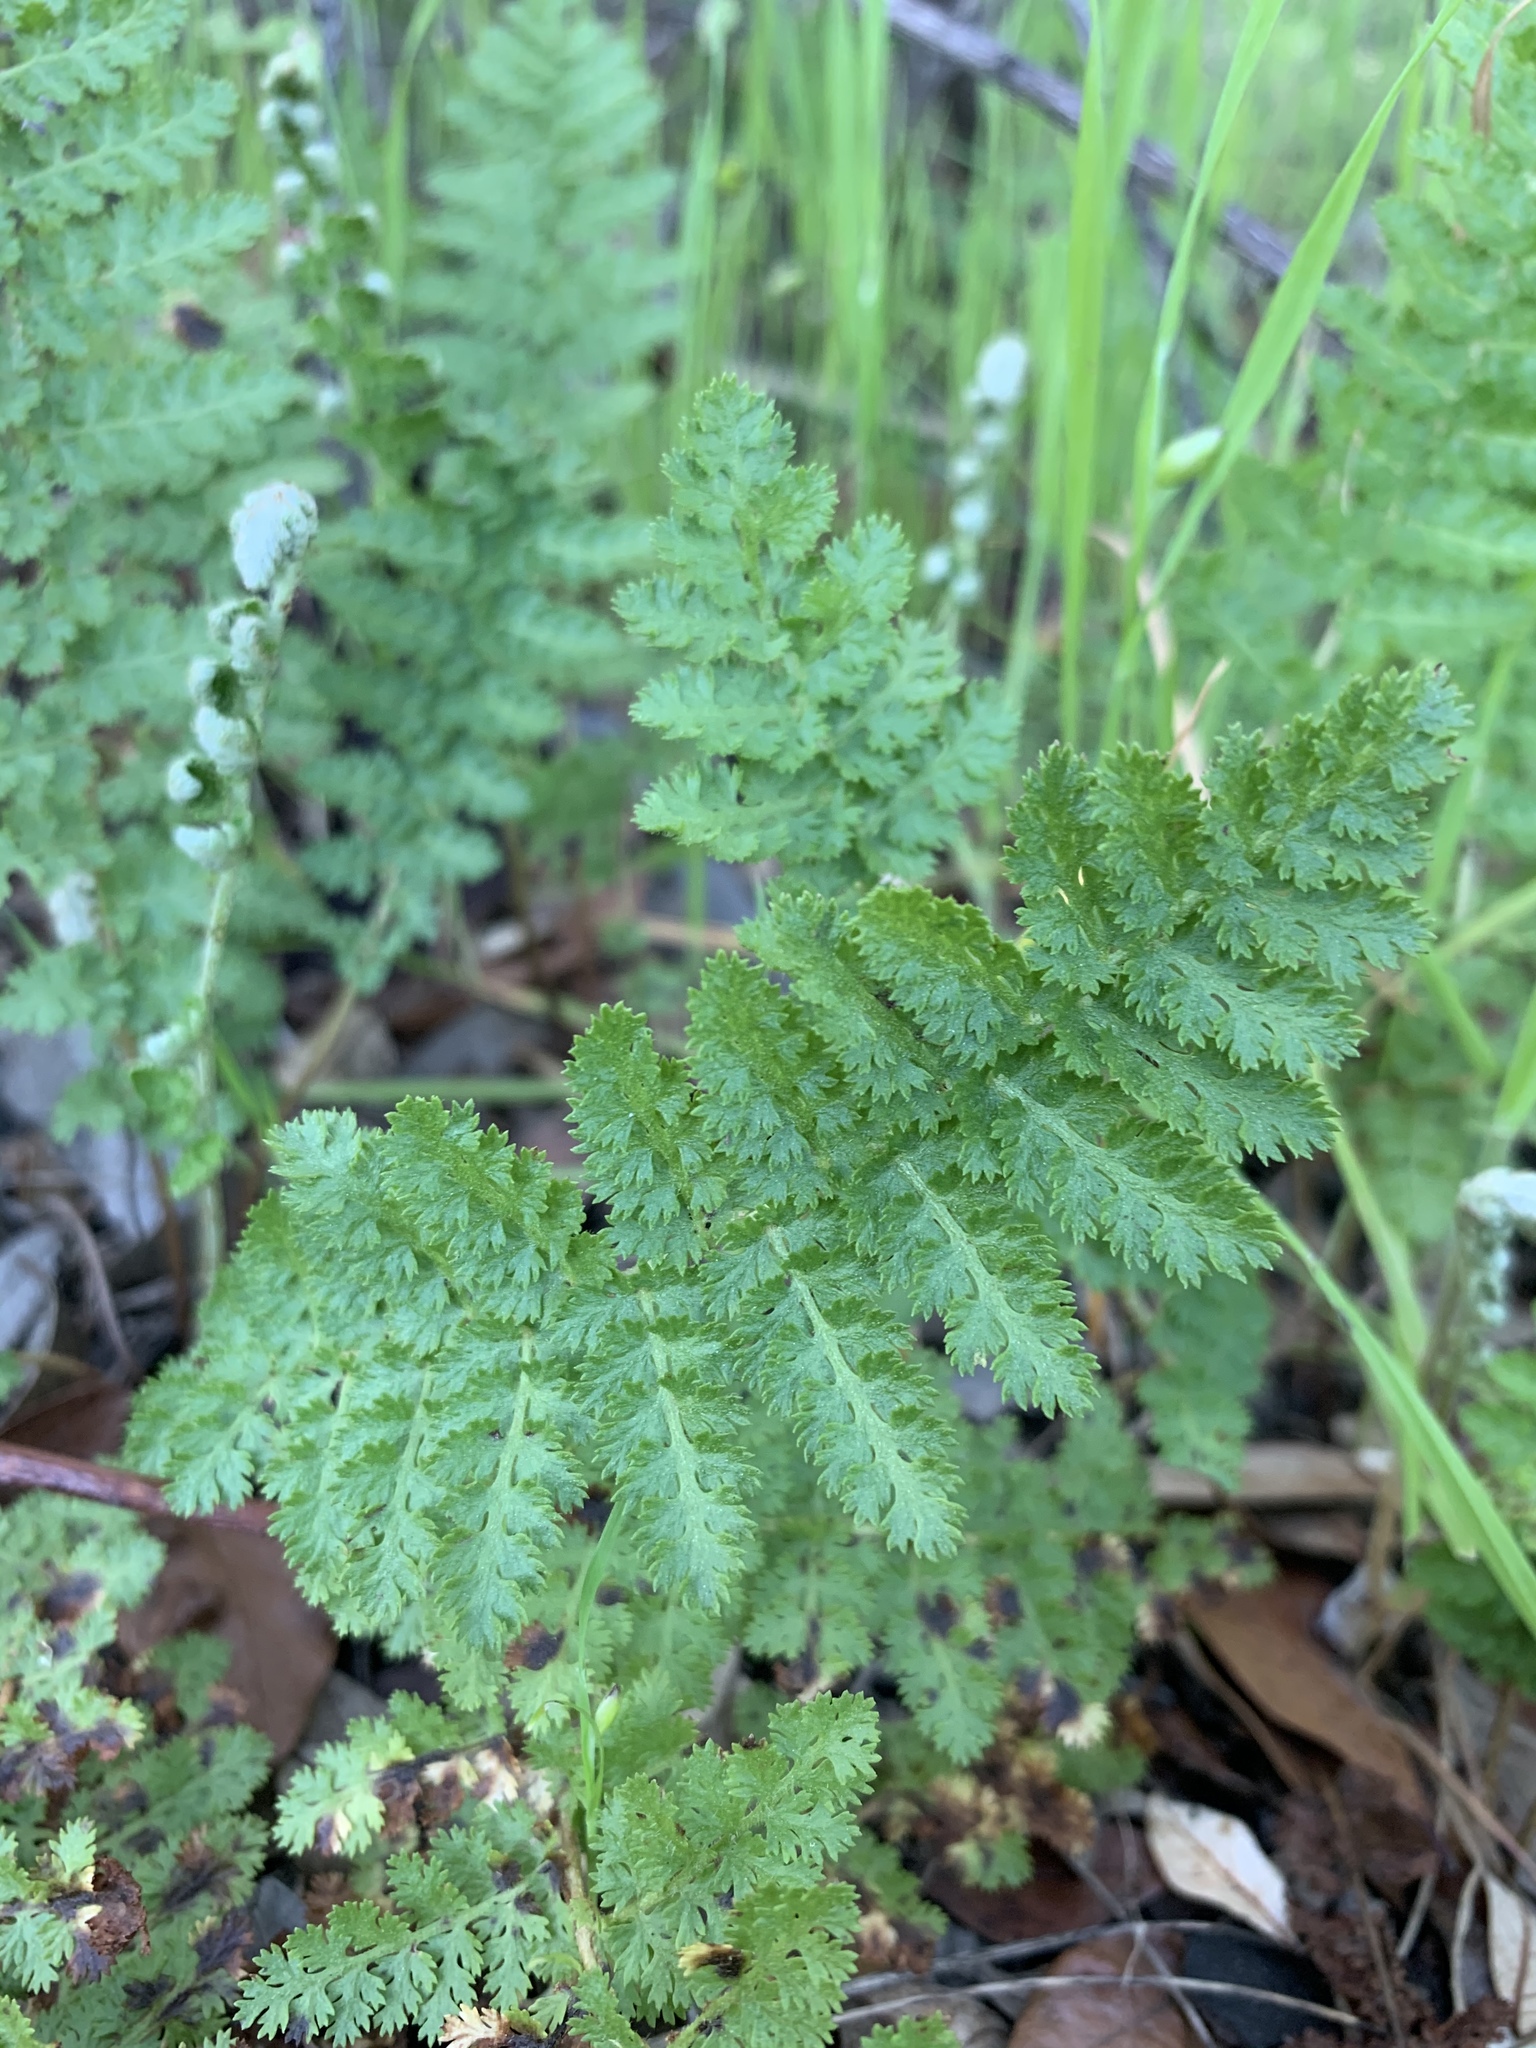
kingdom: Plantae
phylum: Tracheophyta
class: Polypodiopsida
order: Schizaeales
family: Anemiaceae
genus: Anemia
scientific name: Anemia caffrorum
